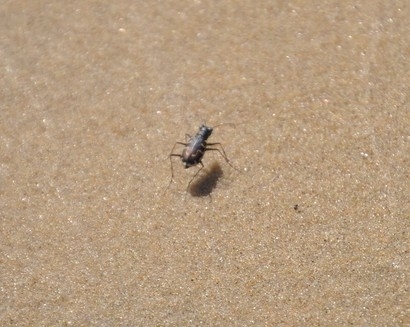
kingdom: Animalia
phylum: Arthropoda
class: Insecta
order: Coleoptera
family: Carabidae
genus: Cicindela
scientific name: Cicindela hirticollis
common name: Hairy-necked tiger beetle
